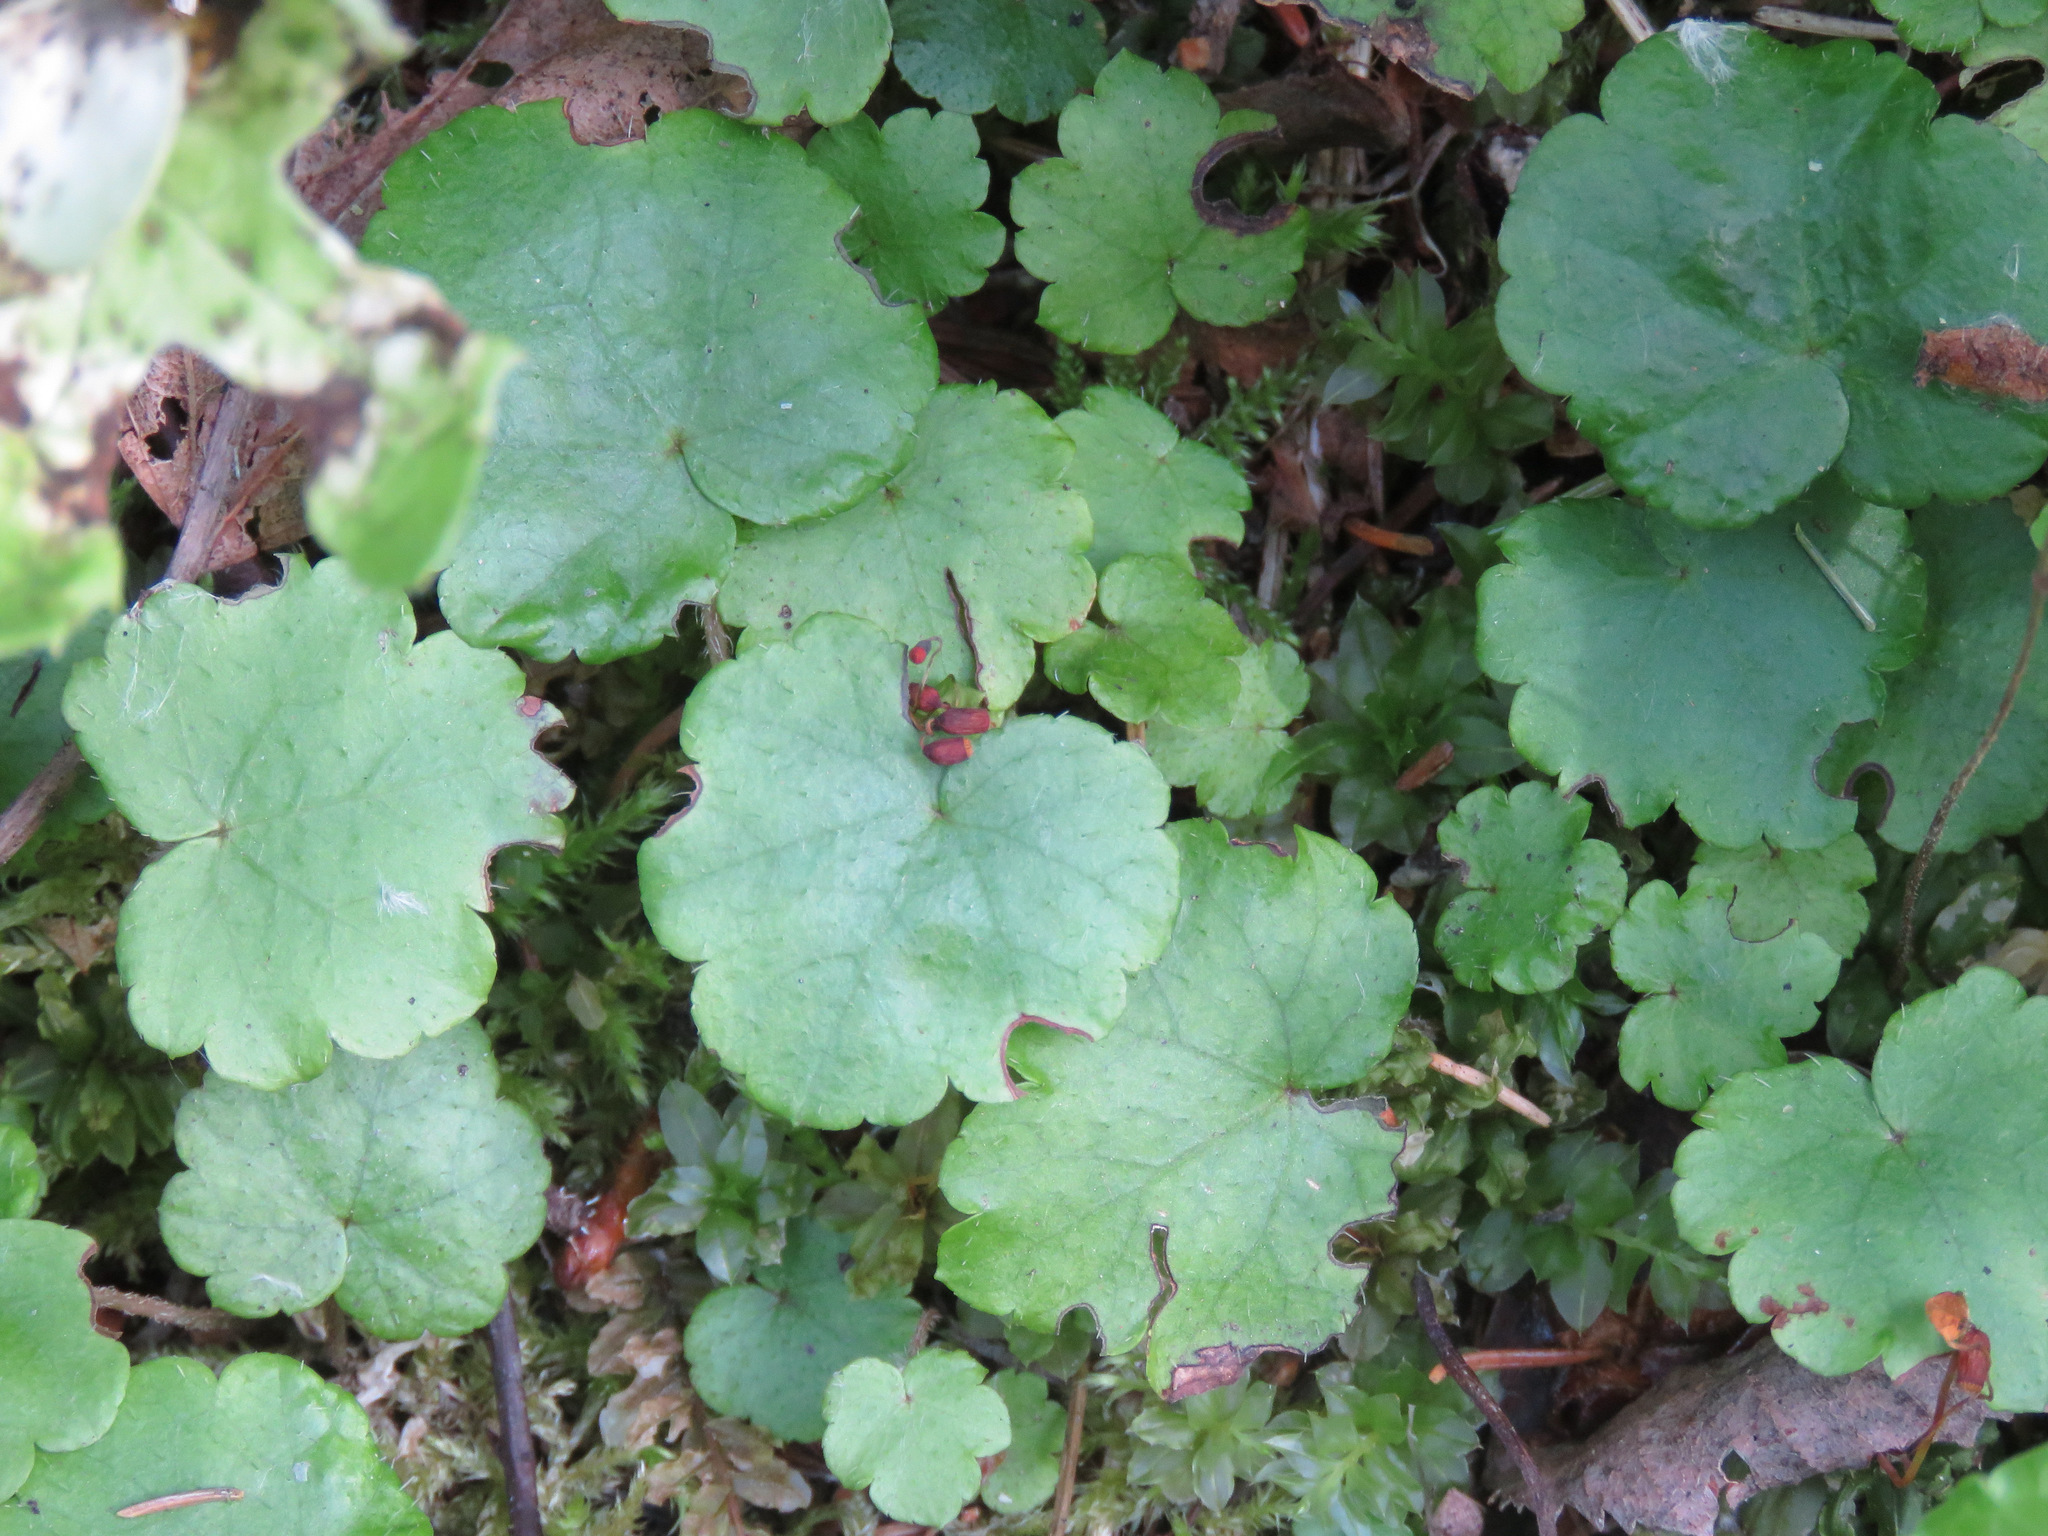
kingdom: Plantae
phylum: Tracheophyta
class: Magnoliopsida
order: Saxifragales
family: Saxifragaceae
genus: Mitella
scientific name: Mitella nuda
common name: Bare-stemmed bishop's-cap
